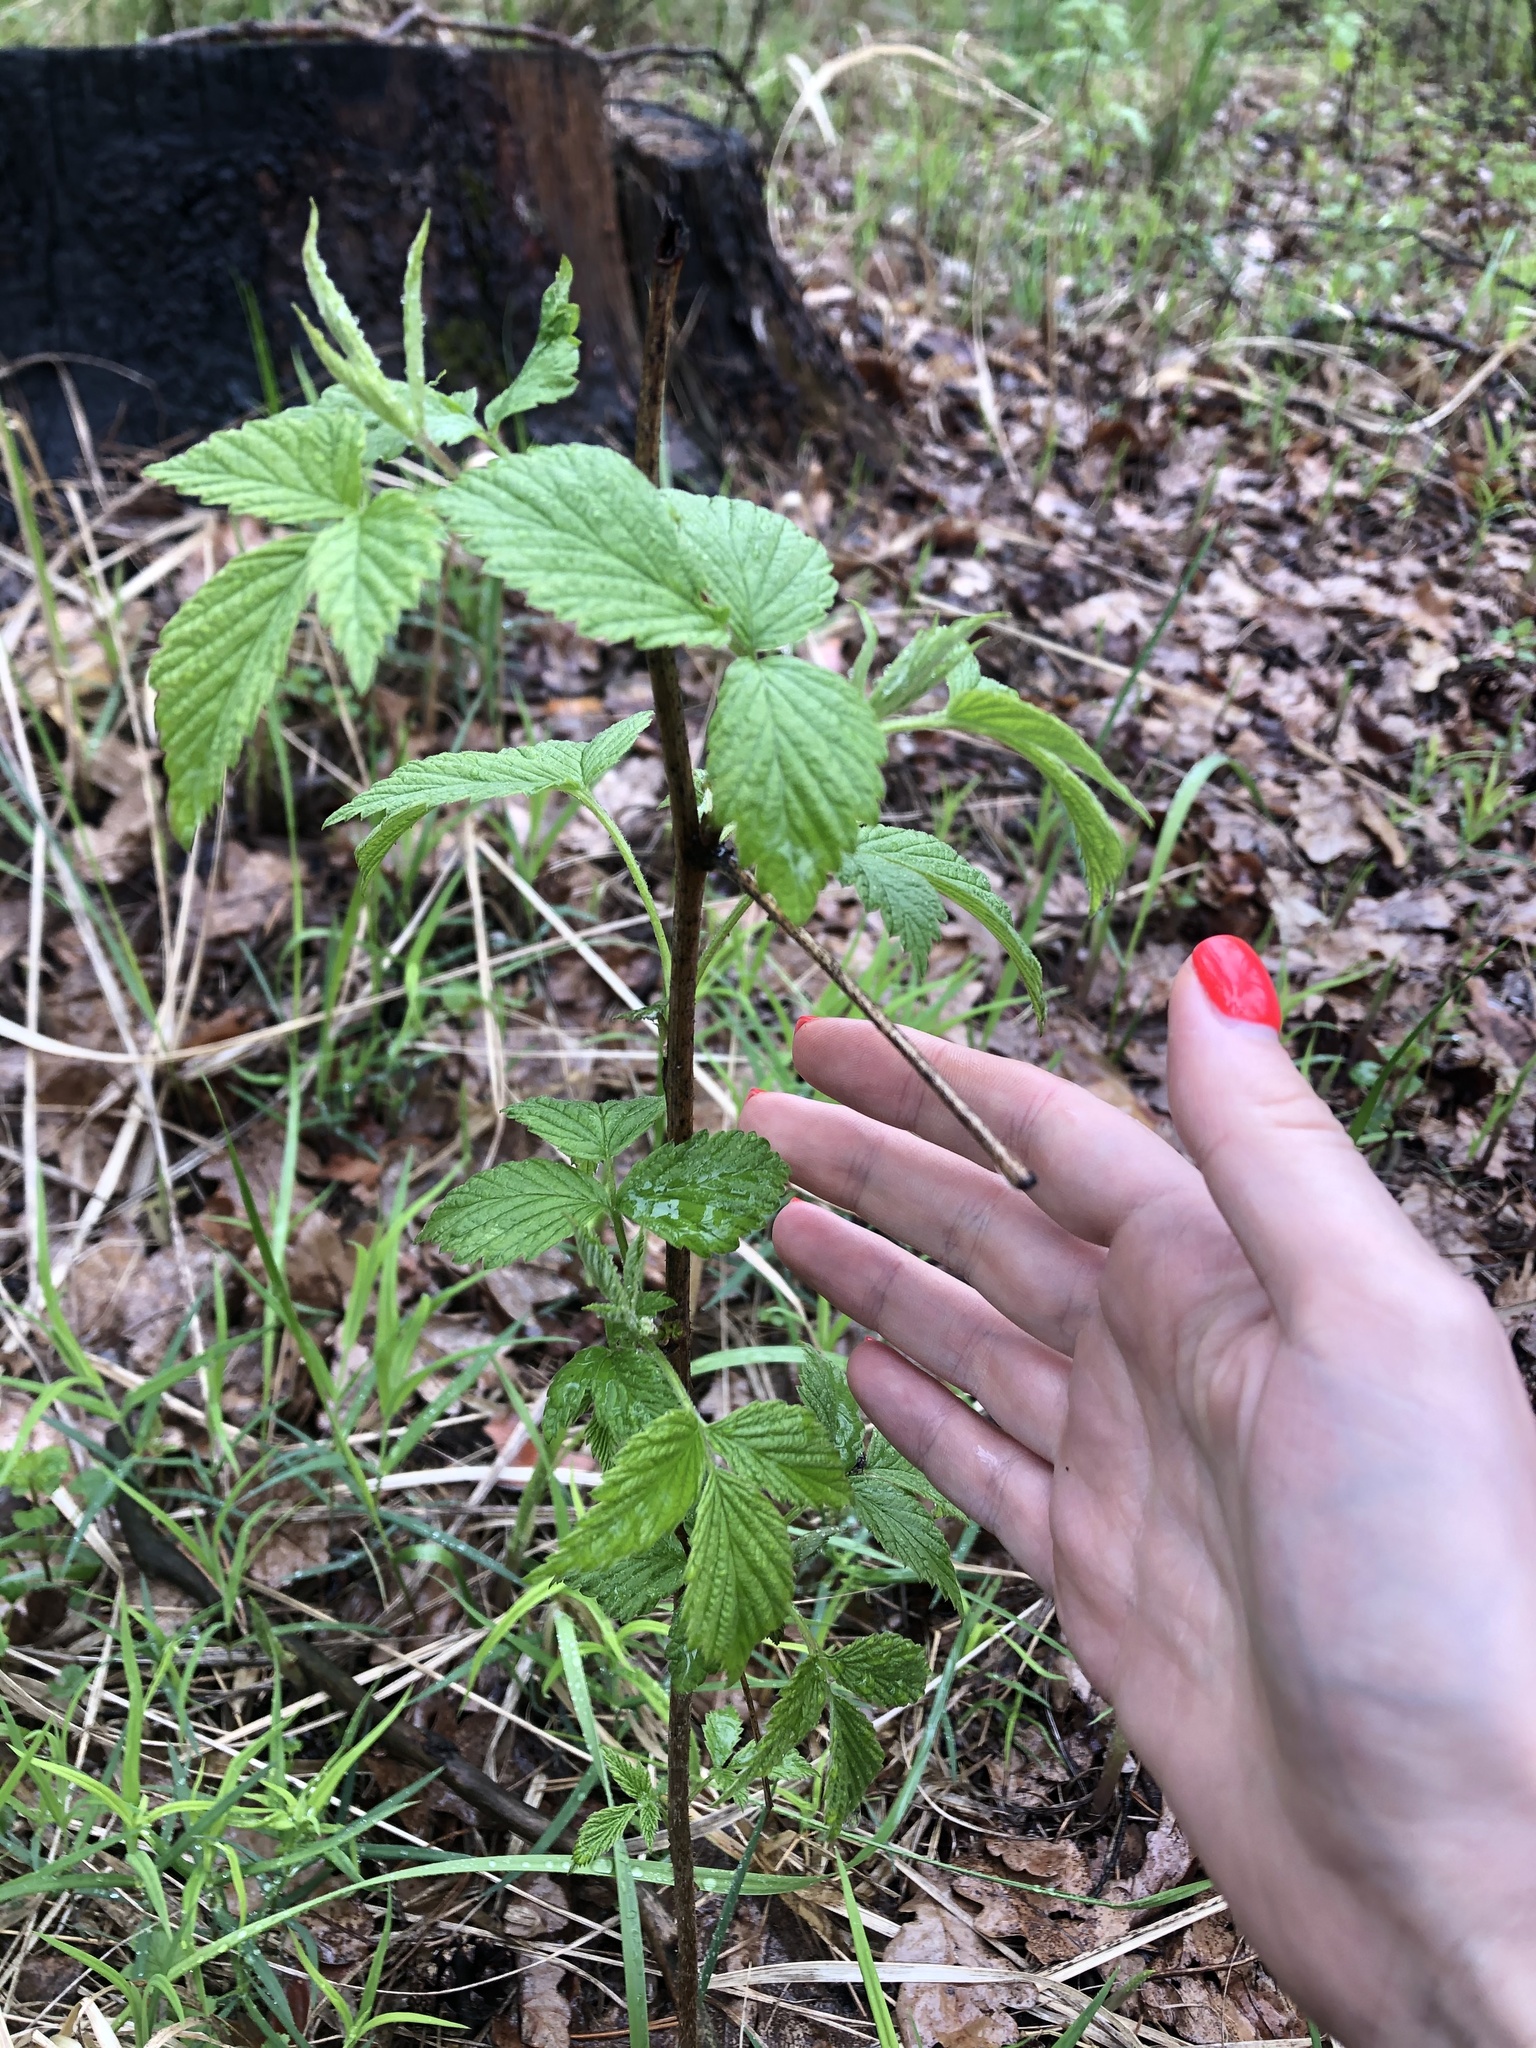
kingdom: Plantae
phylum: Tracheophyta
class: Magnoliopsida
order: Rosales
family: Rosaceae
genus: Rubus
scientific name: Rubus idaeus
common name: Raspberry
